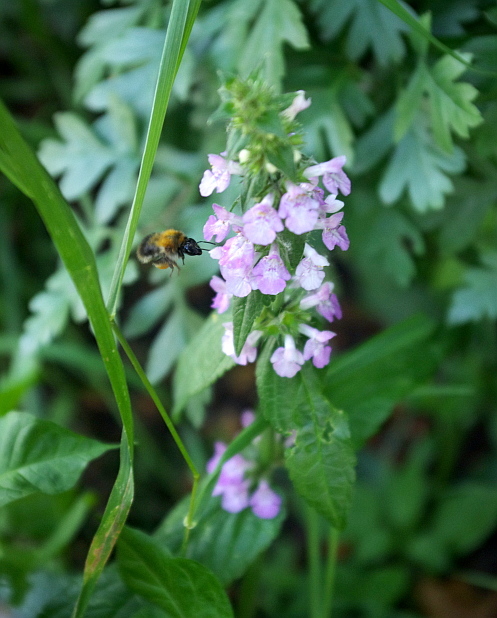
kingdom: Animalia
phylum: Arthropoda
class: Insecta
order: Hymenoptera
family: Apidae
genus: Bombus
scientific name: Bombus pascuorum
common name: Common carder bee
